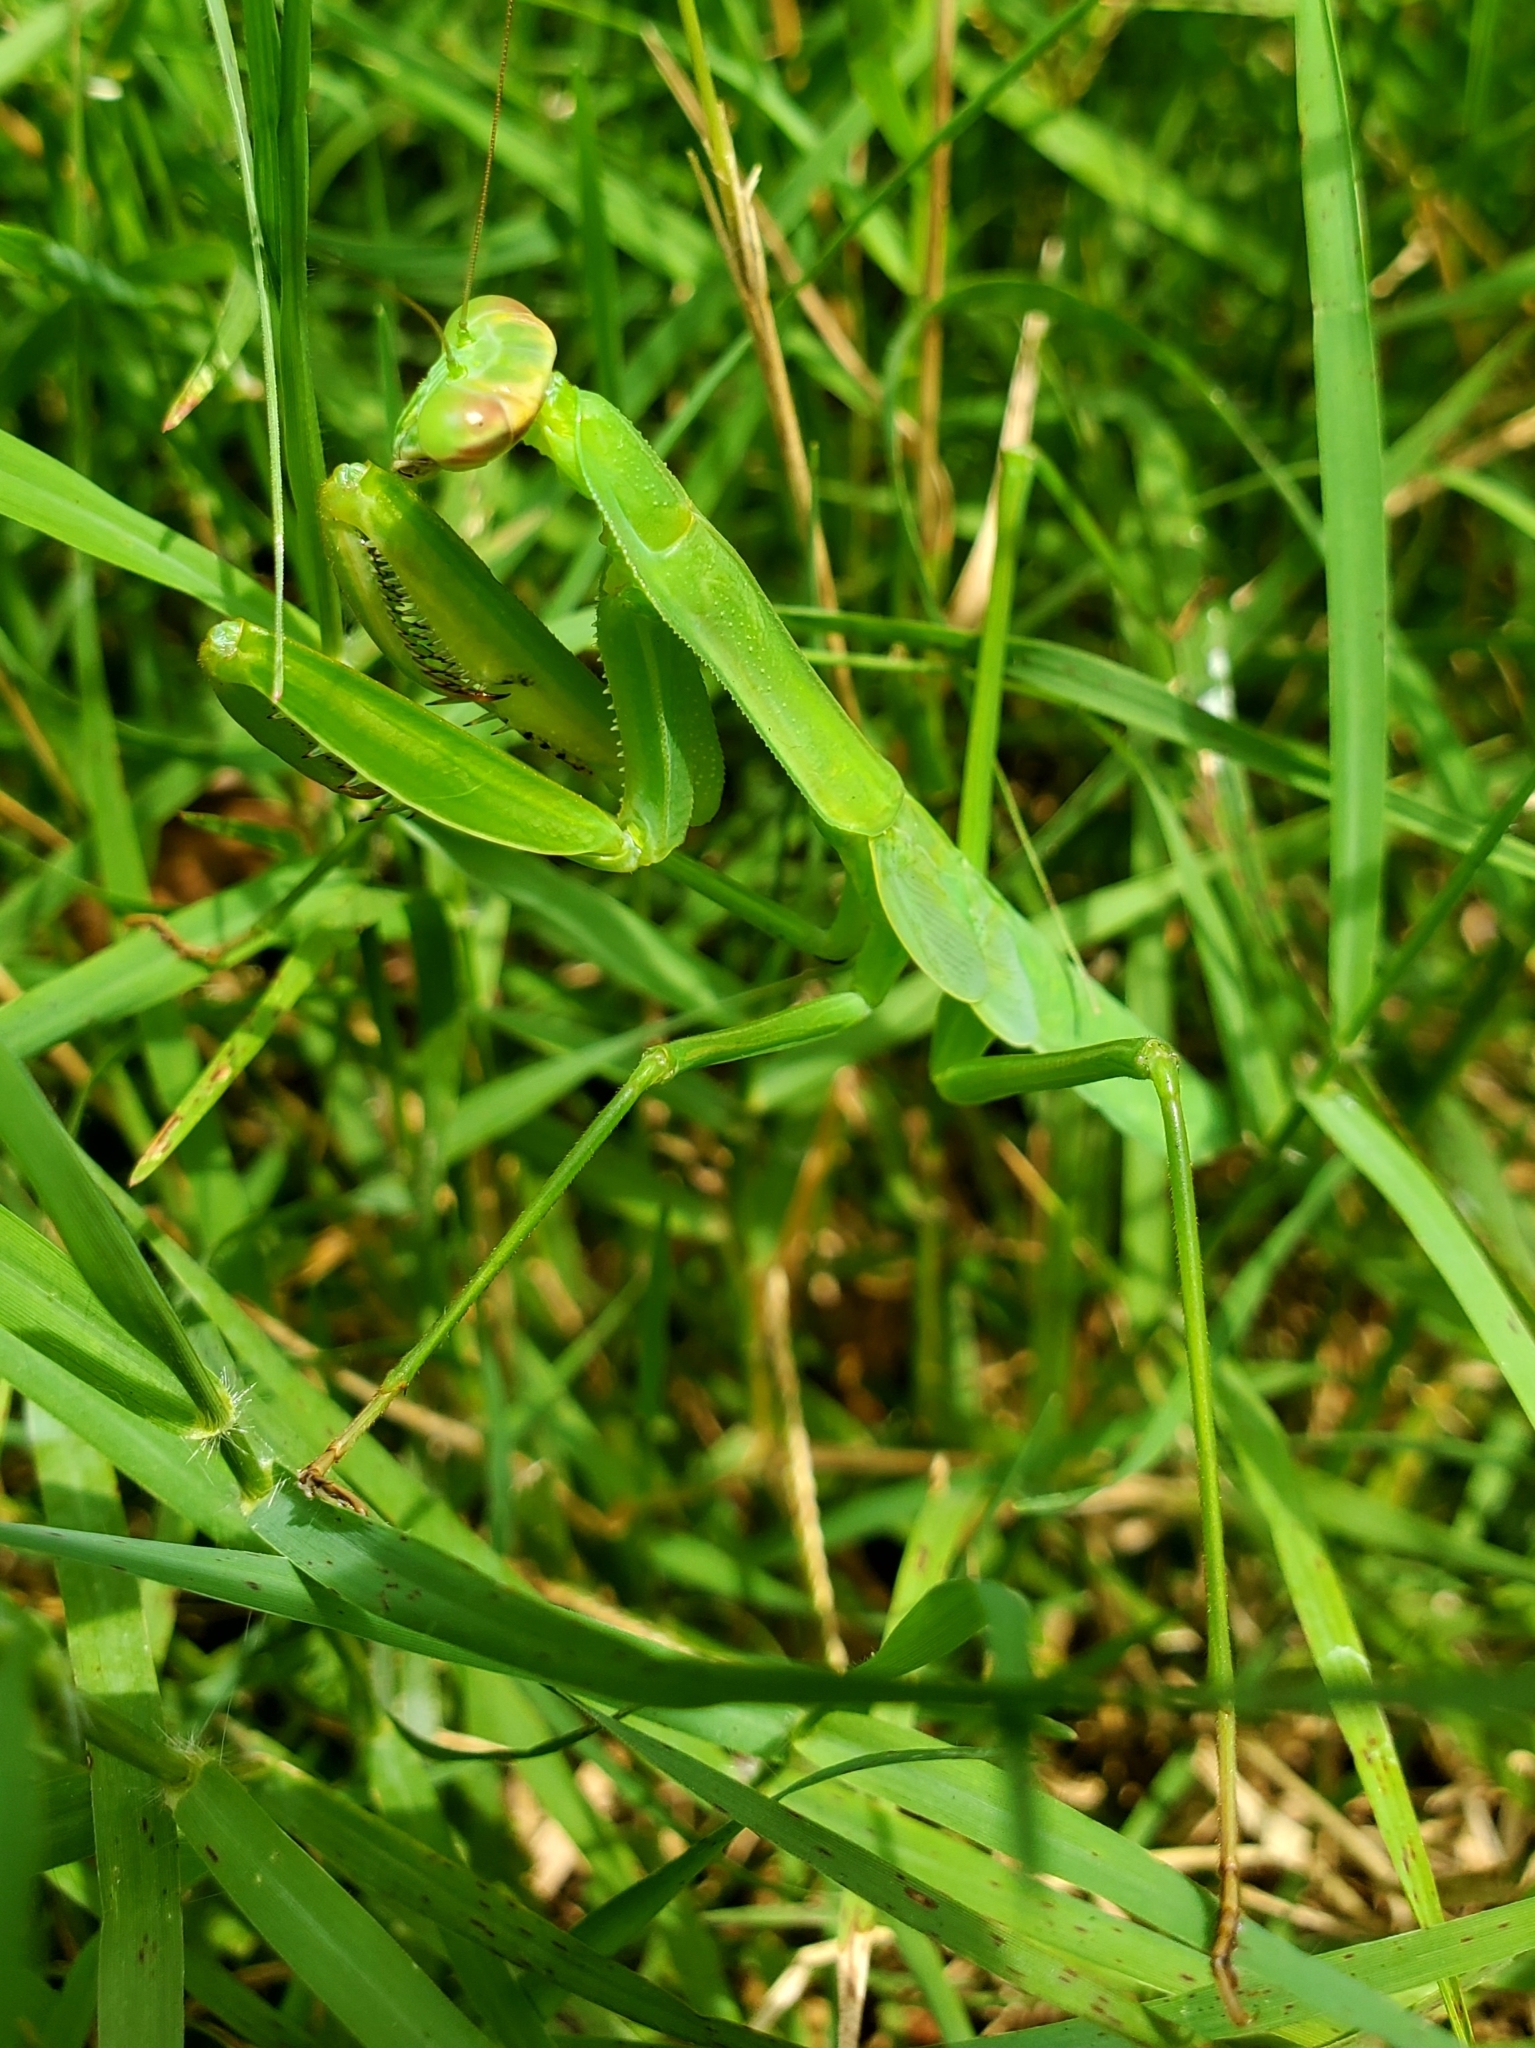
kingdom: Animalia
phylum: Arthropoda
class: Insecta
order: Mantodea
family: Mantidae
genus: Tenodera
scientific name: Tenodera sinensis
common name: Chinese mantis
